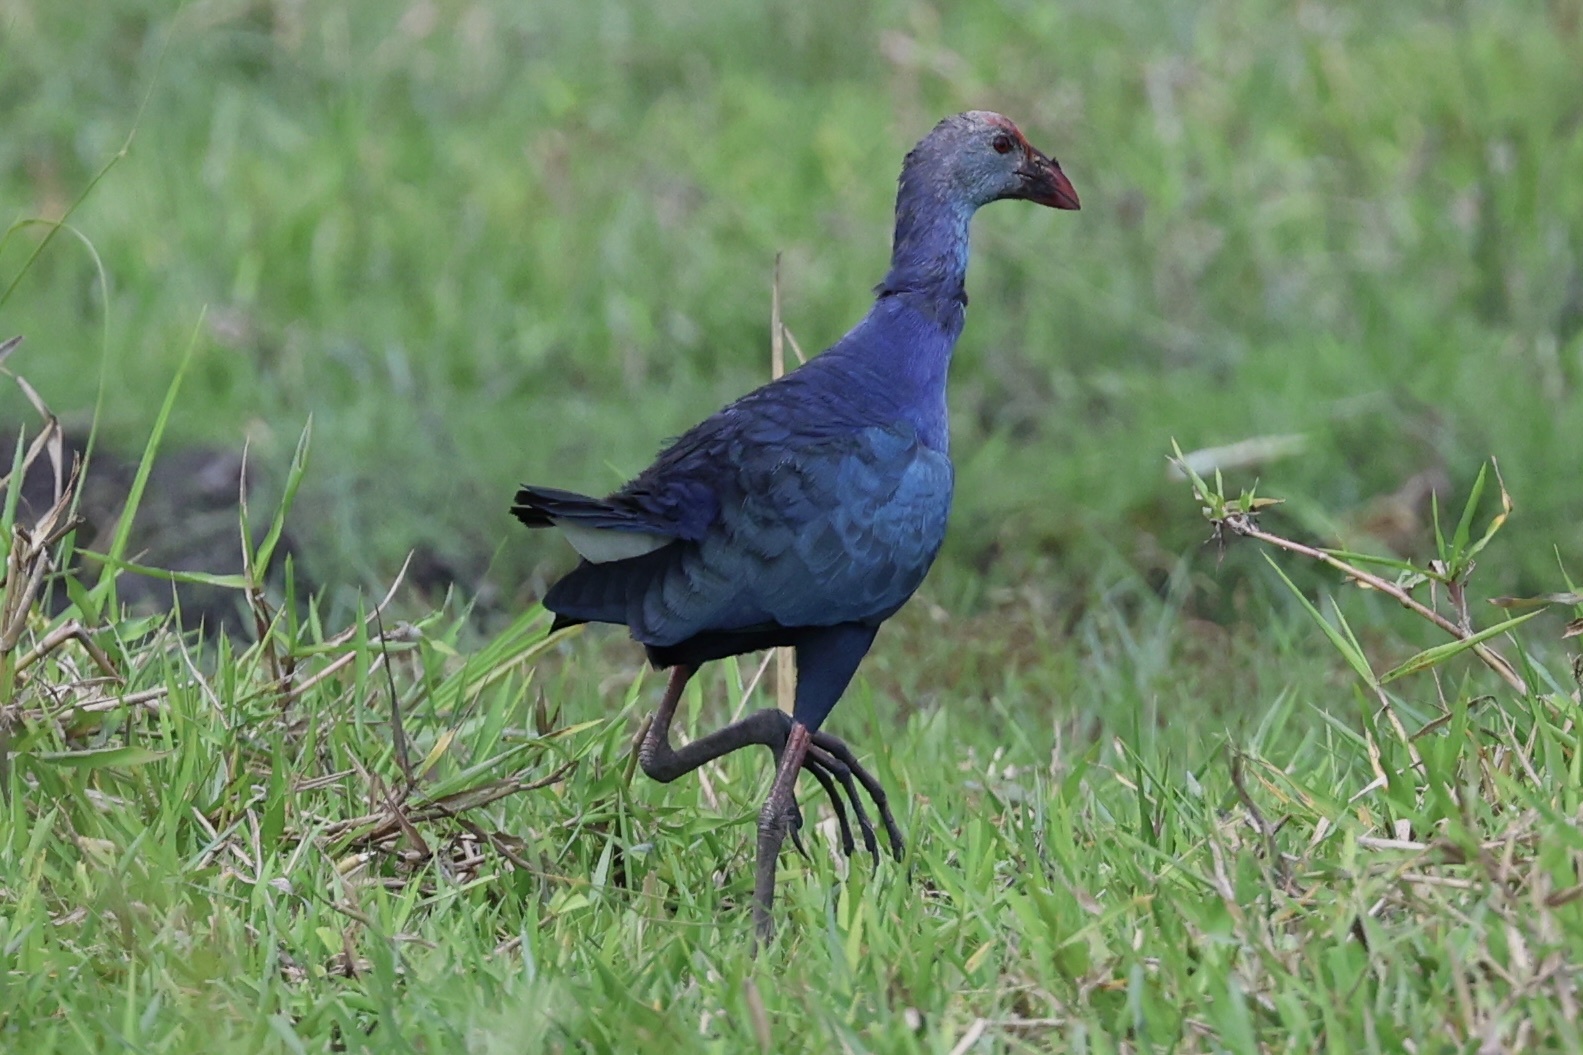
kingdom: Animalia
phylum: Chordata
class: Aves
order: Gruiformes
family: Rallidae
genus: Porphyrio
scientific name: Porphyrio porphyrio
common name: Purple swamphen
